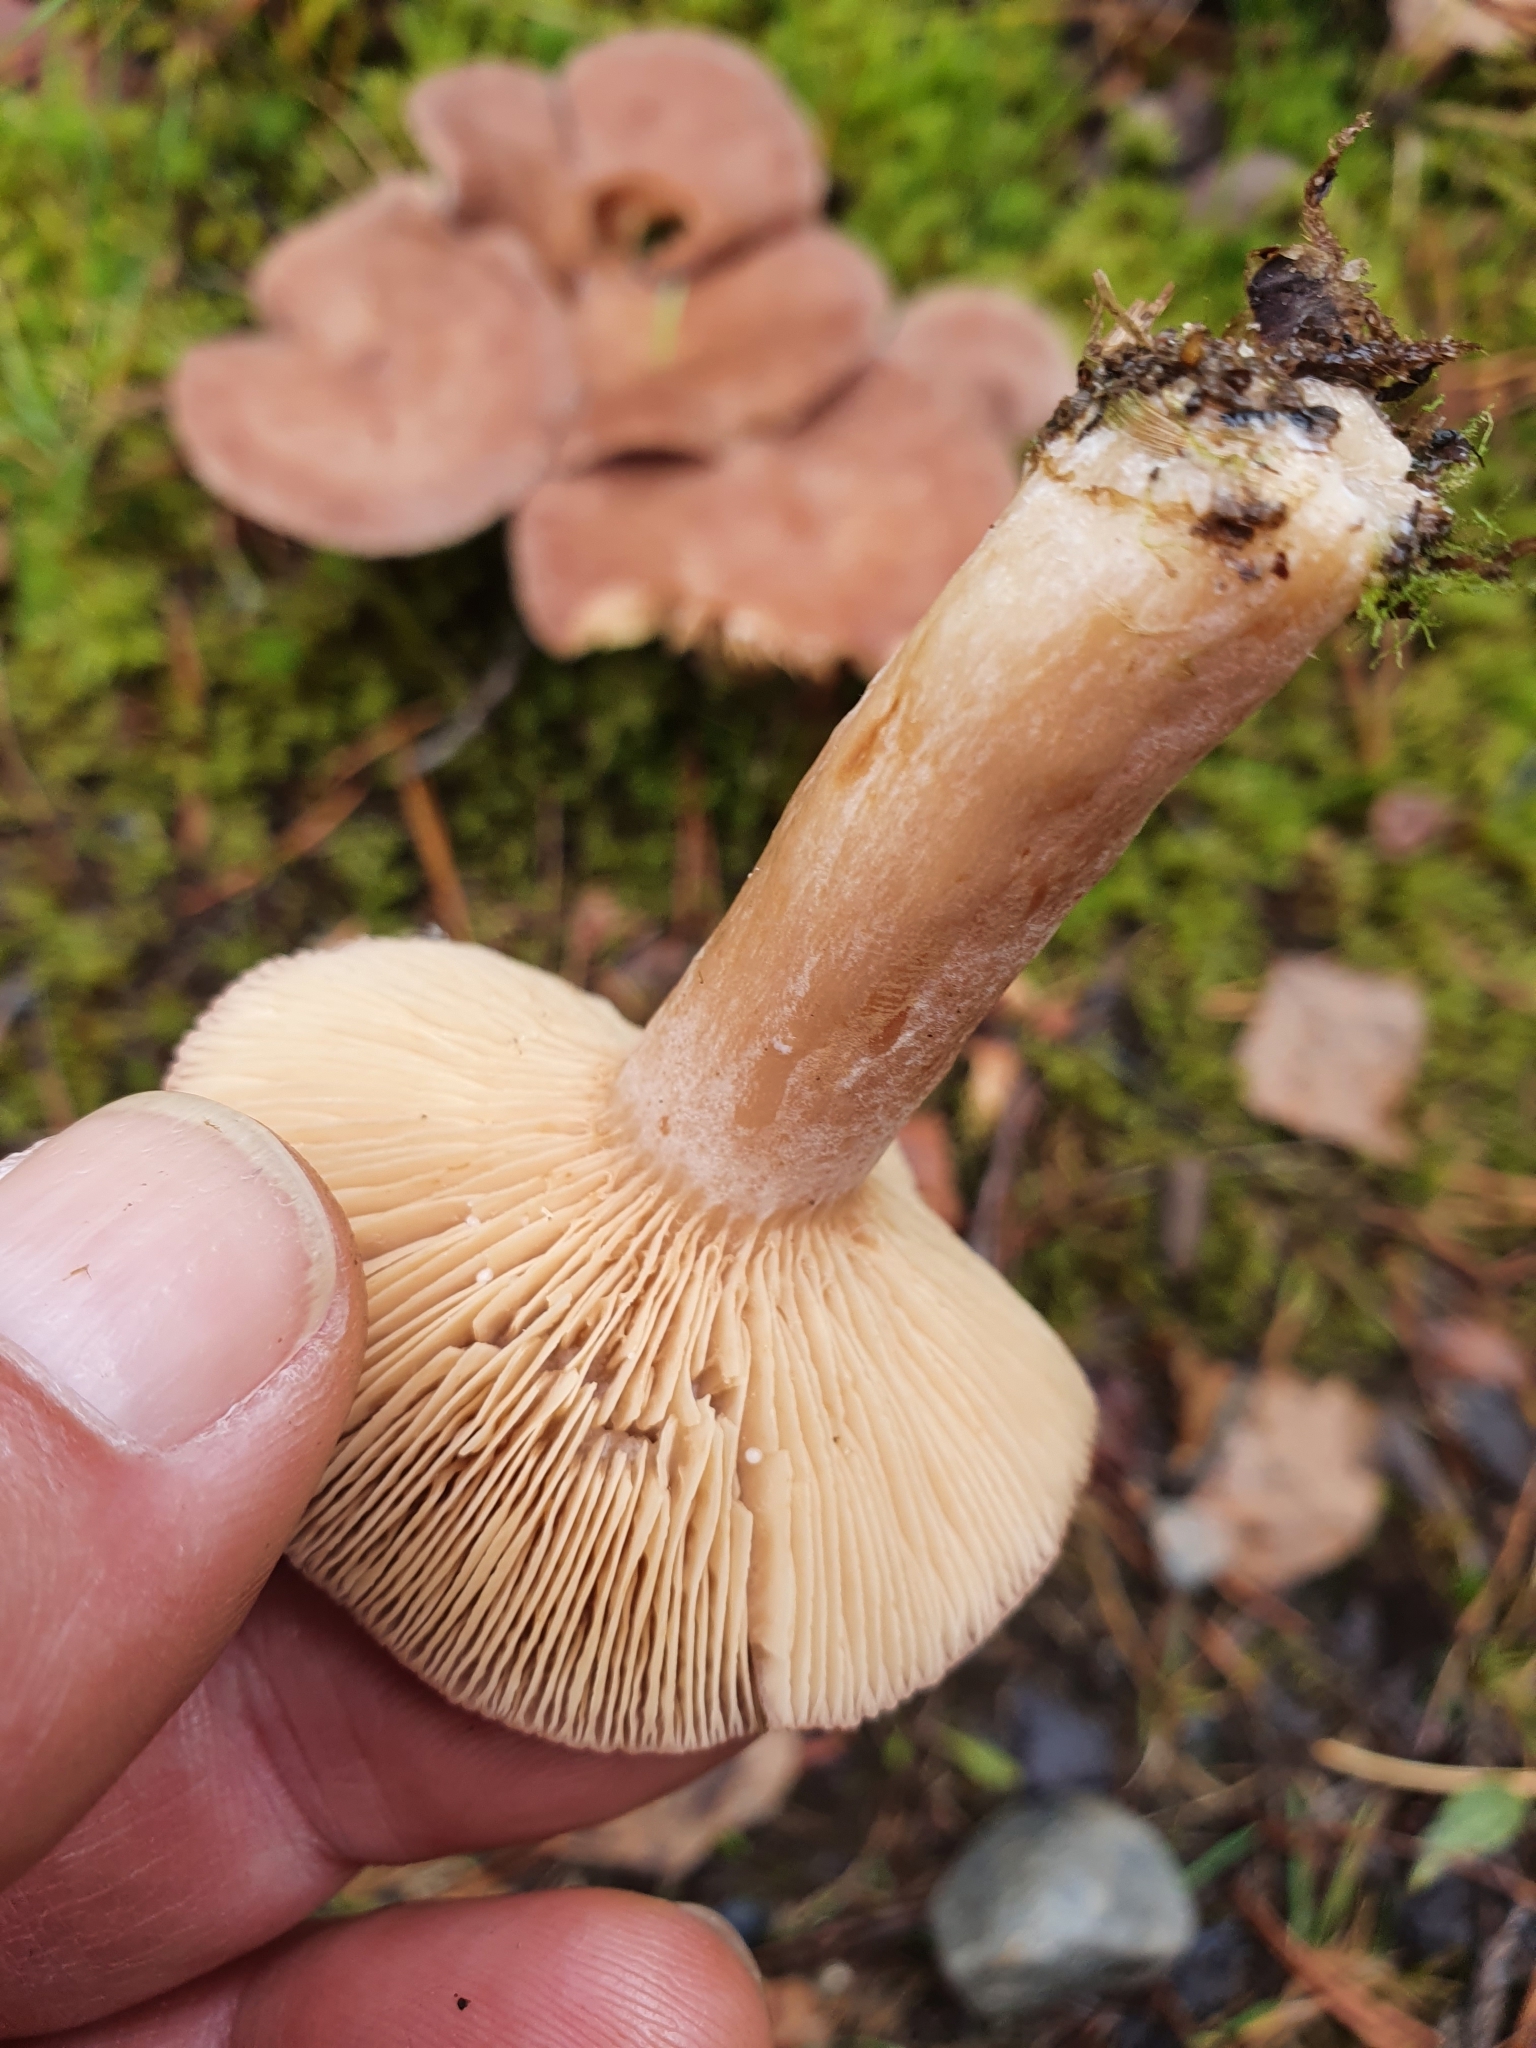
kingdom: Fungi
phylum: Basidiomycota
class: Agaricomycetes
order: Russulales
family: Russulaceae
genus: Lactarius
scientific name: Lactarius glyciosmus
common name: Coconut milkcap
